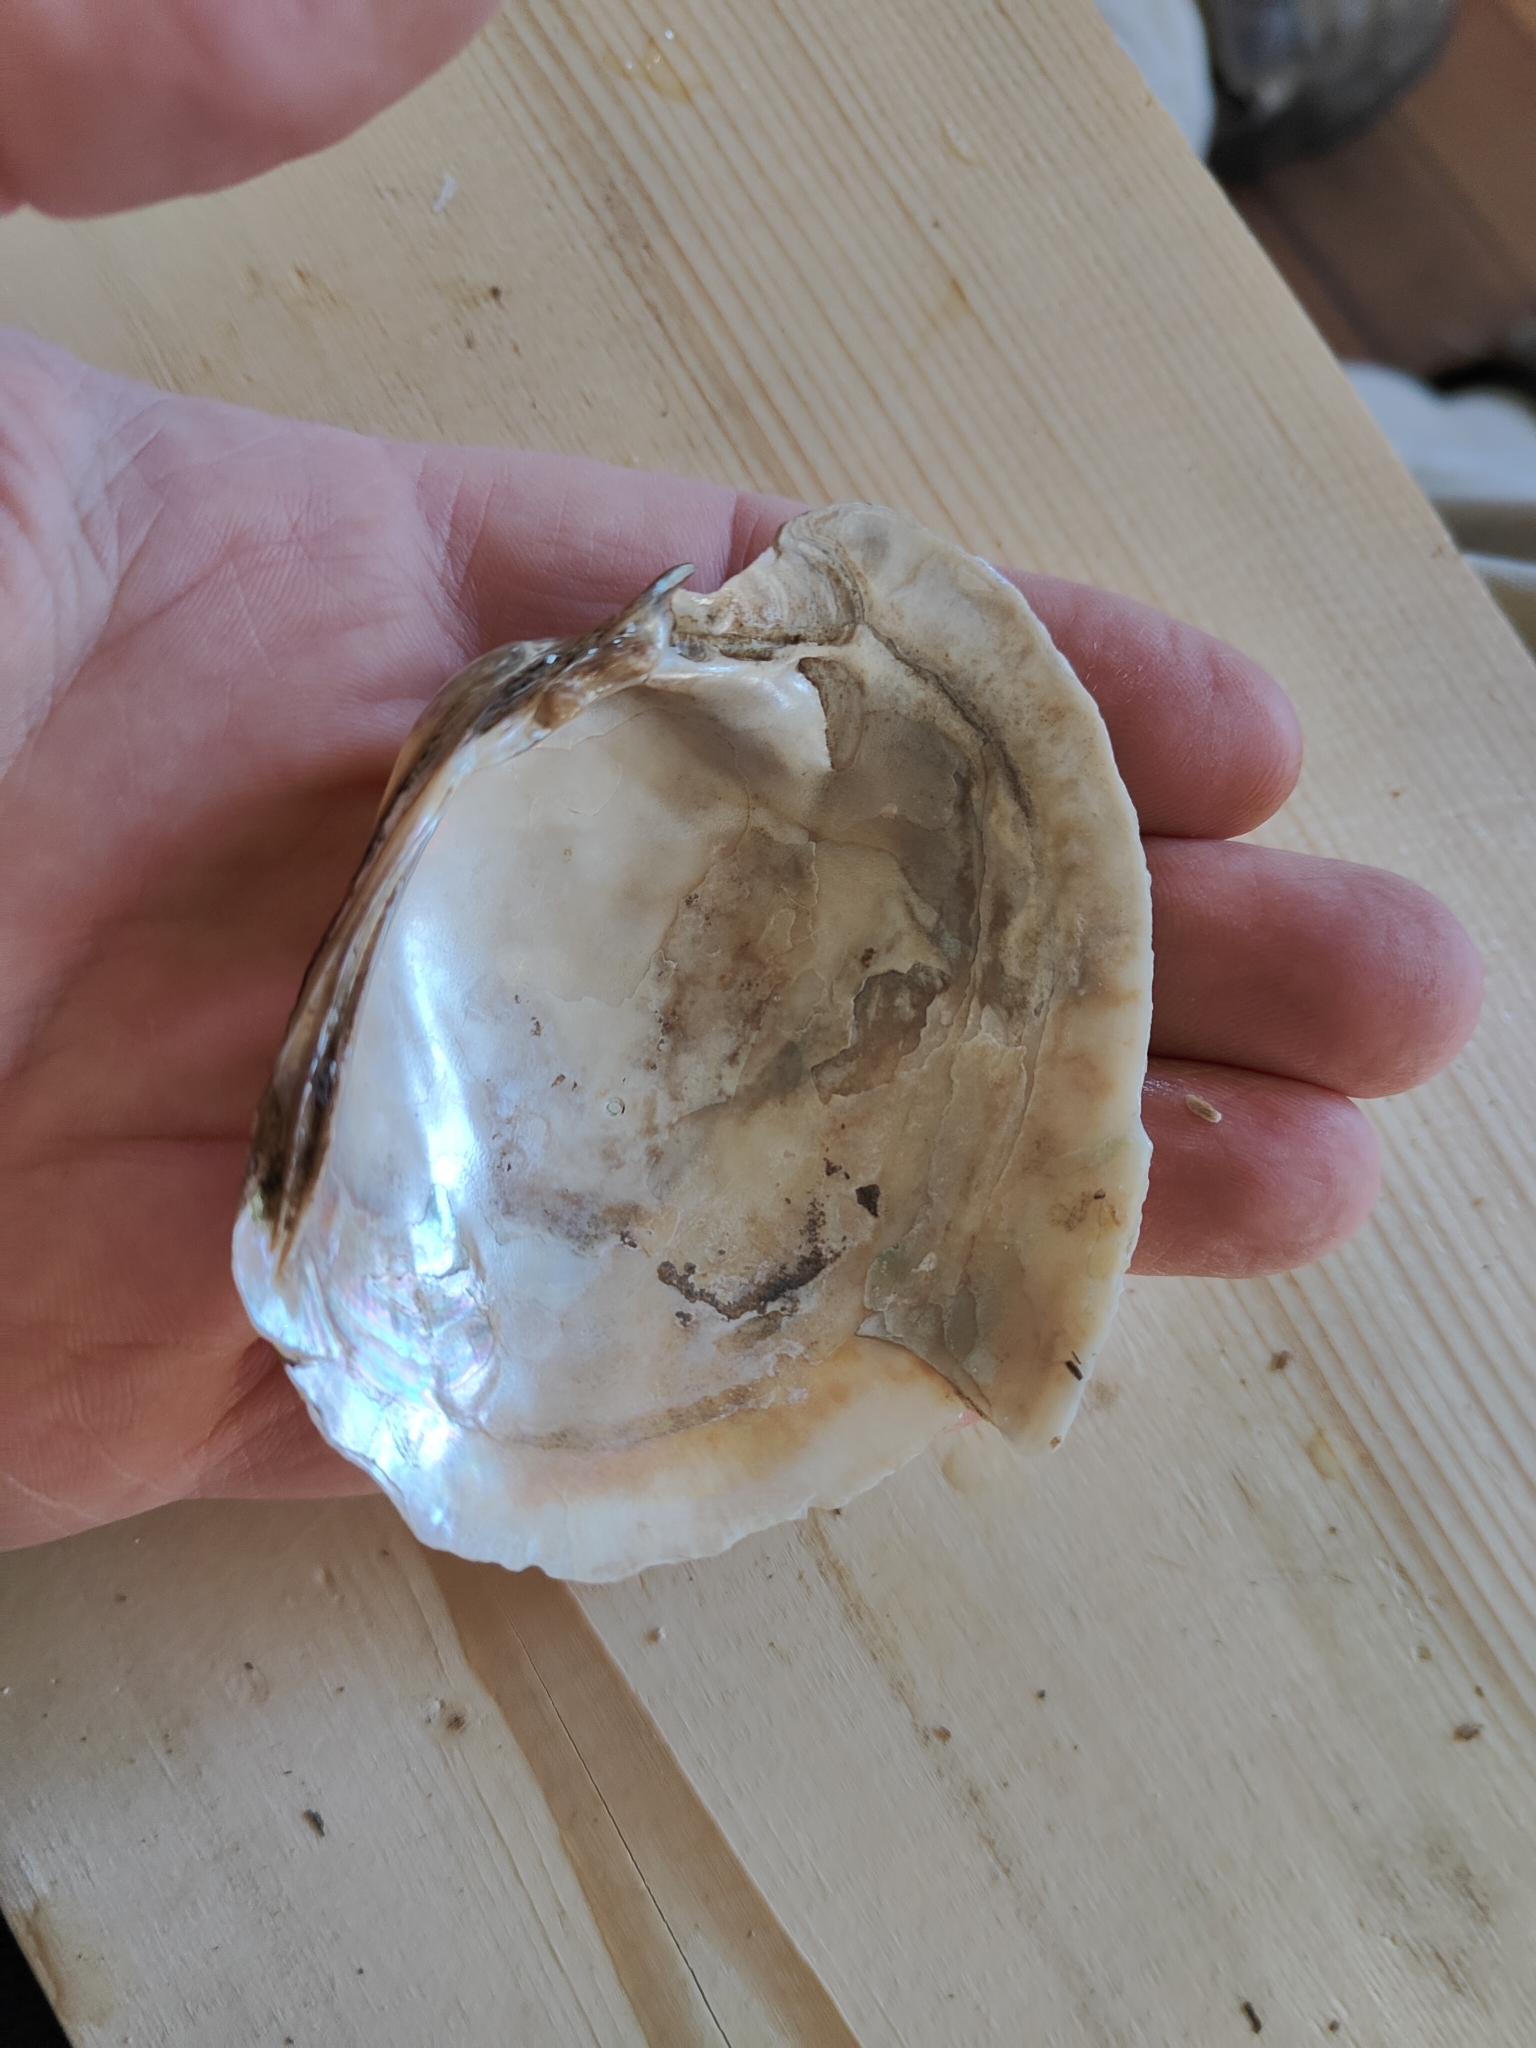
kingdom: Animalia
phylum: Mollusca
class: Bivalvia
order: Unionida
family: Unionidae
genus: Lampsilis
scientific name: Lampsilis cardium
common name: Plain pocketbook
